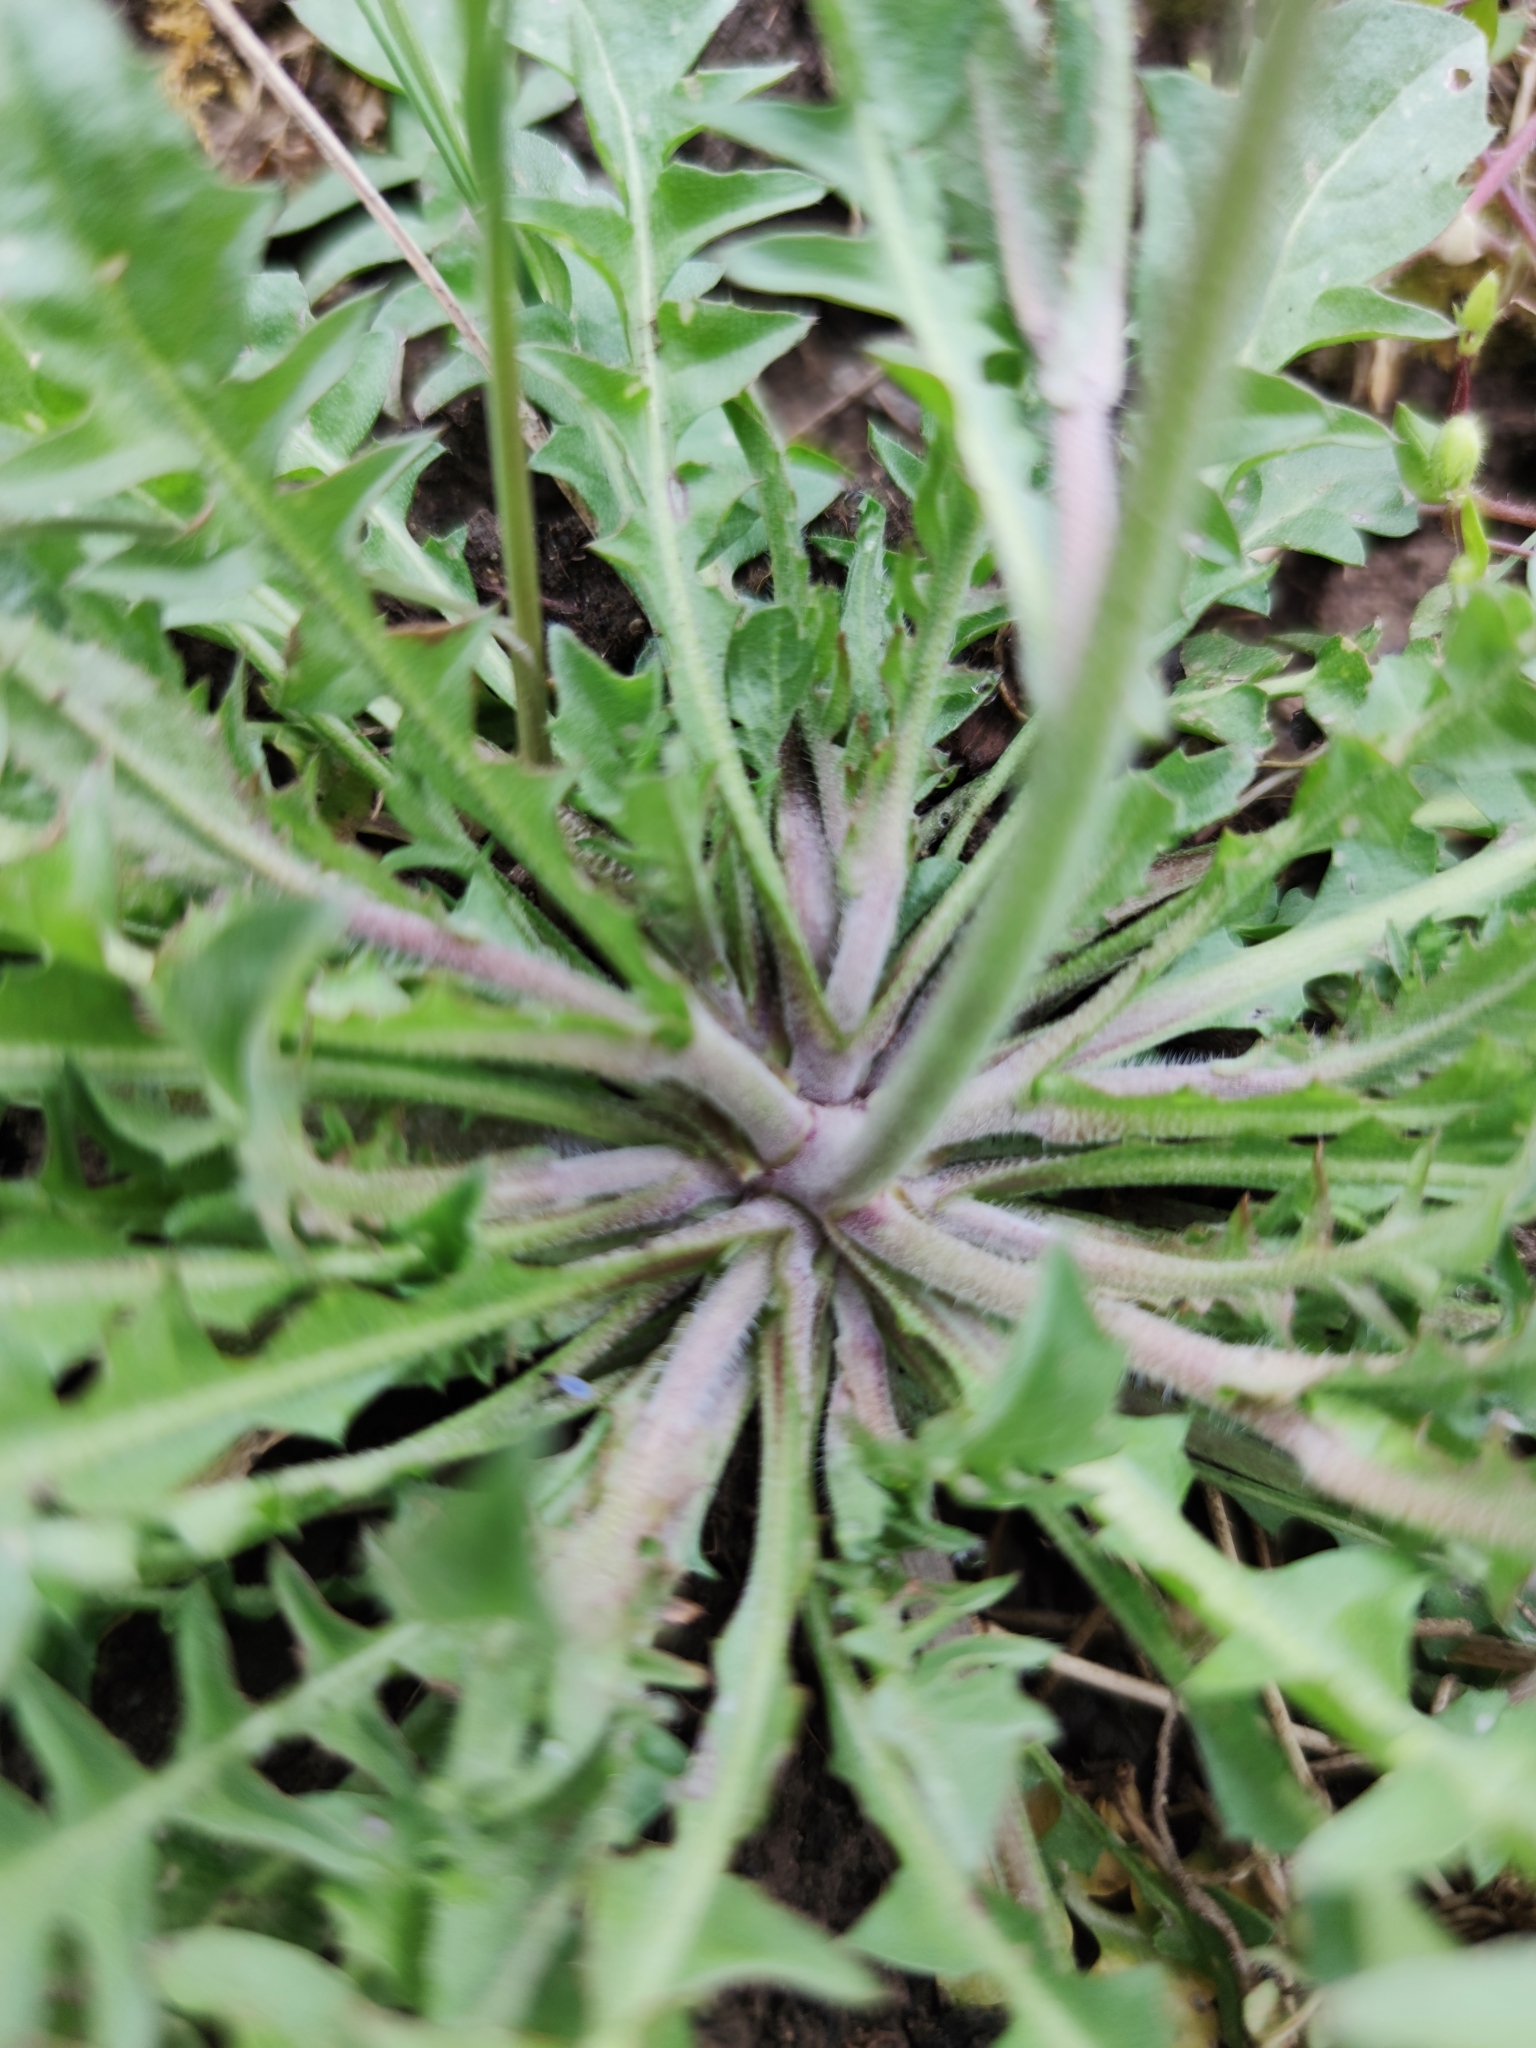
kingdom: Plantae
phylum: Tracheophyta
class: Magnoliopsida
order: Brassicales
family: Brassicaceae
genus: Capsella
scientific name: Capsella bursa-pastoris
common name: Shepherd's purse
